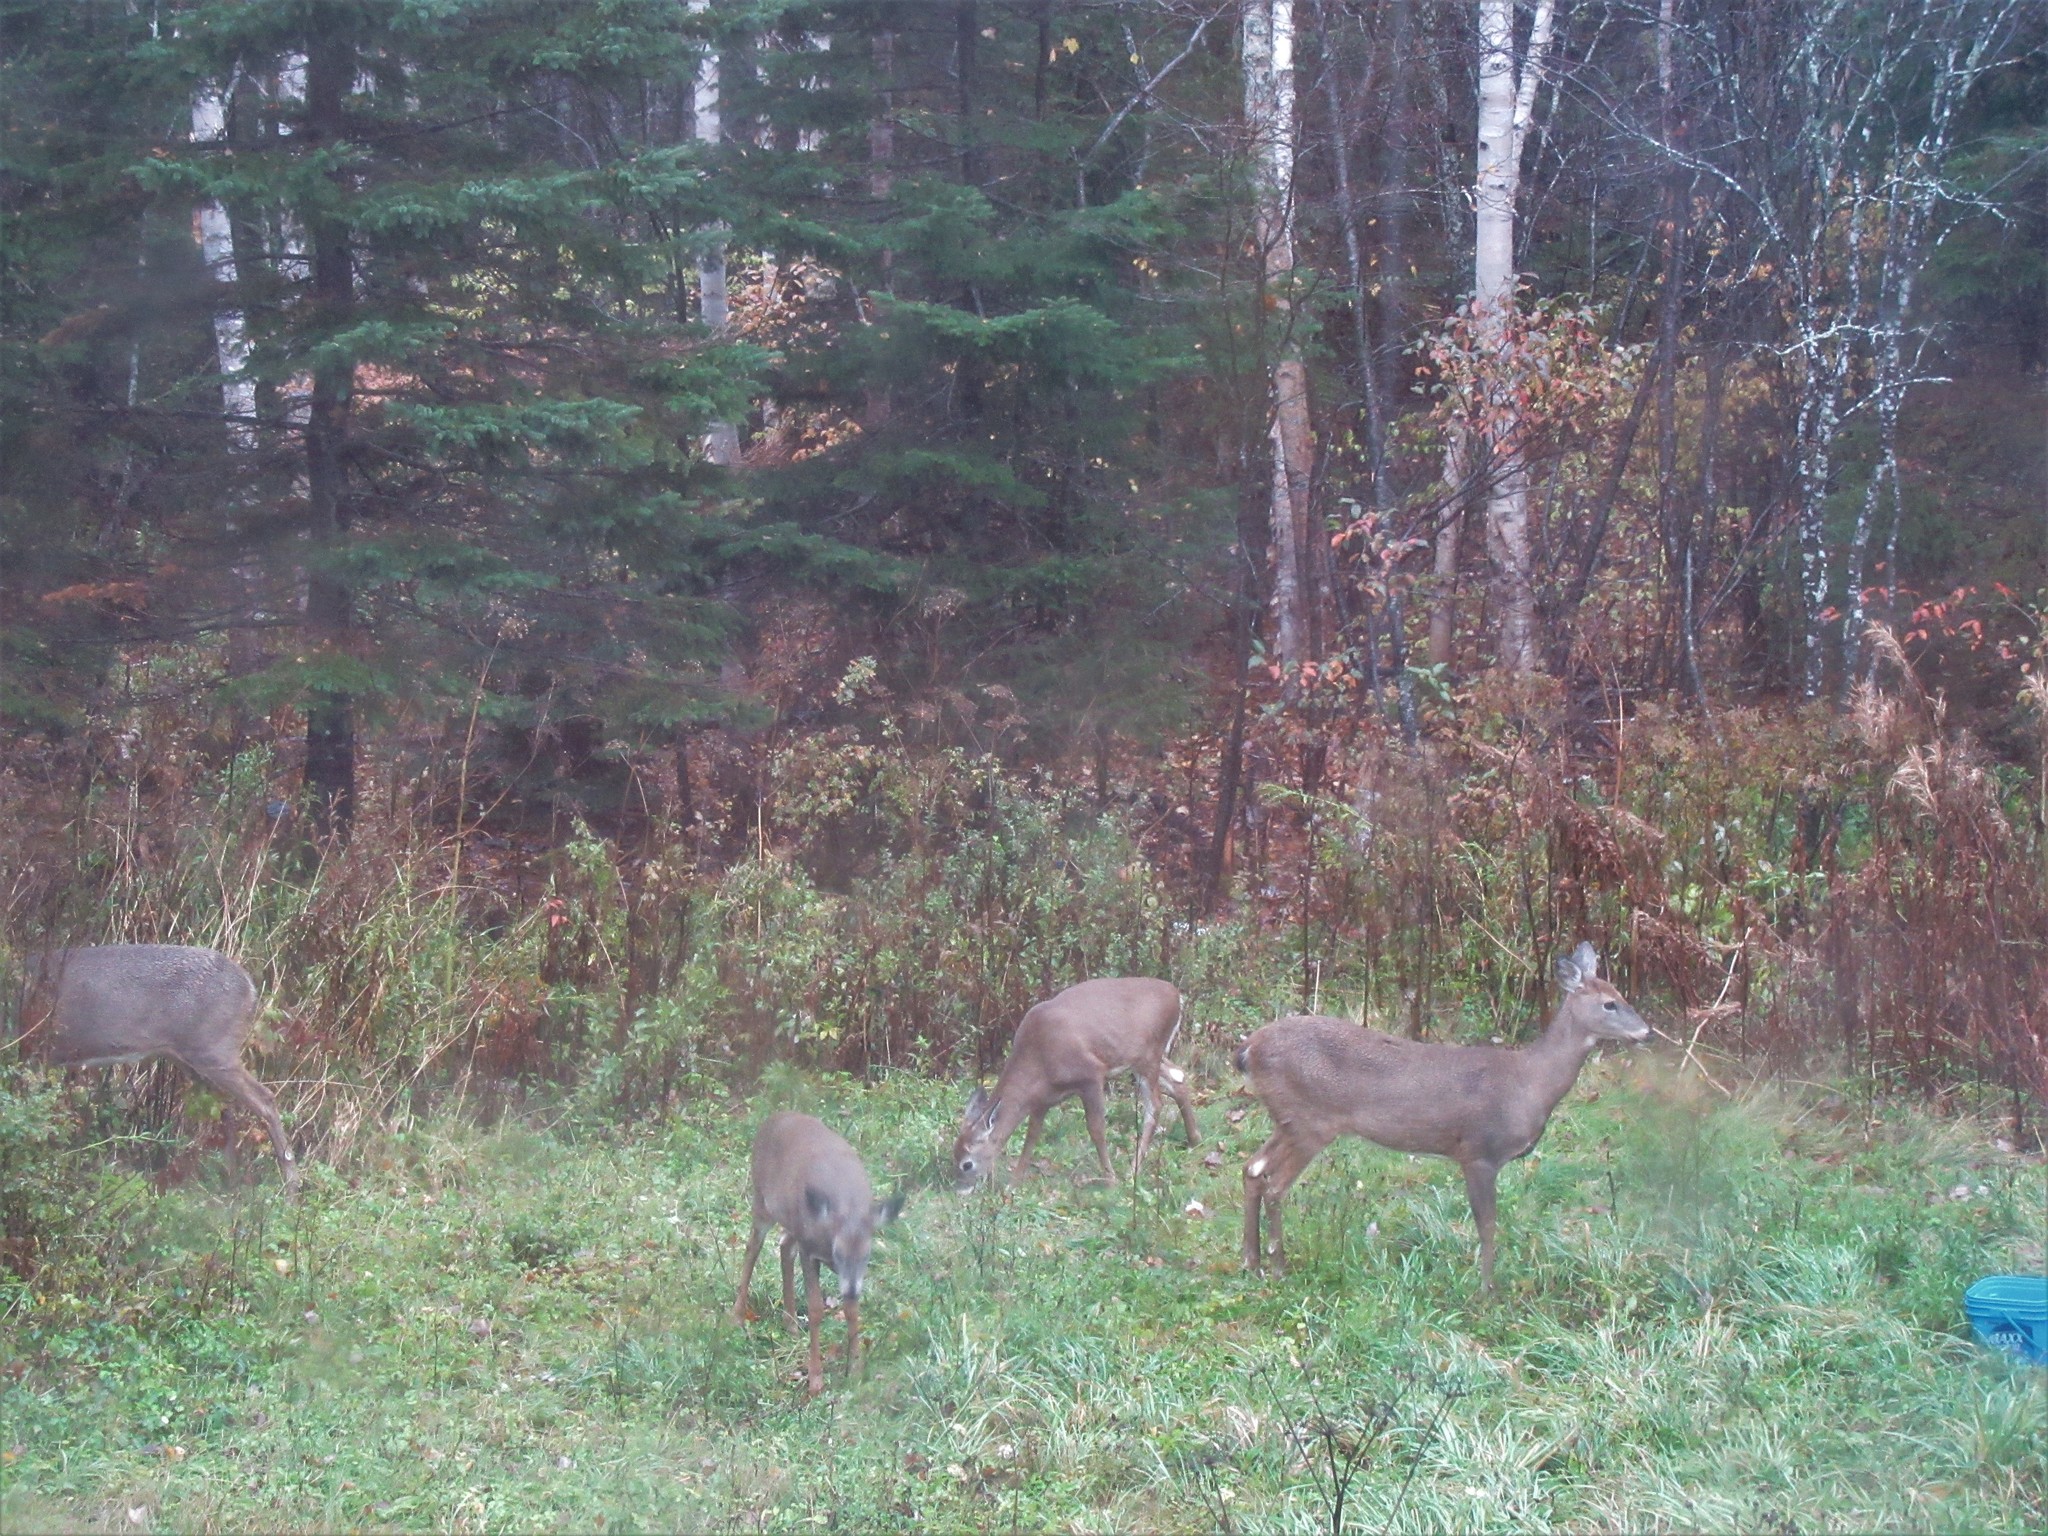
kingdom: Animalia
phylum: Chordata
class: Mammalia
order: Artiodactyla
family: Cervidae
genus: Odocoileus
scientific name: Odocoileus virginianus
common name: White-tailed deer
